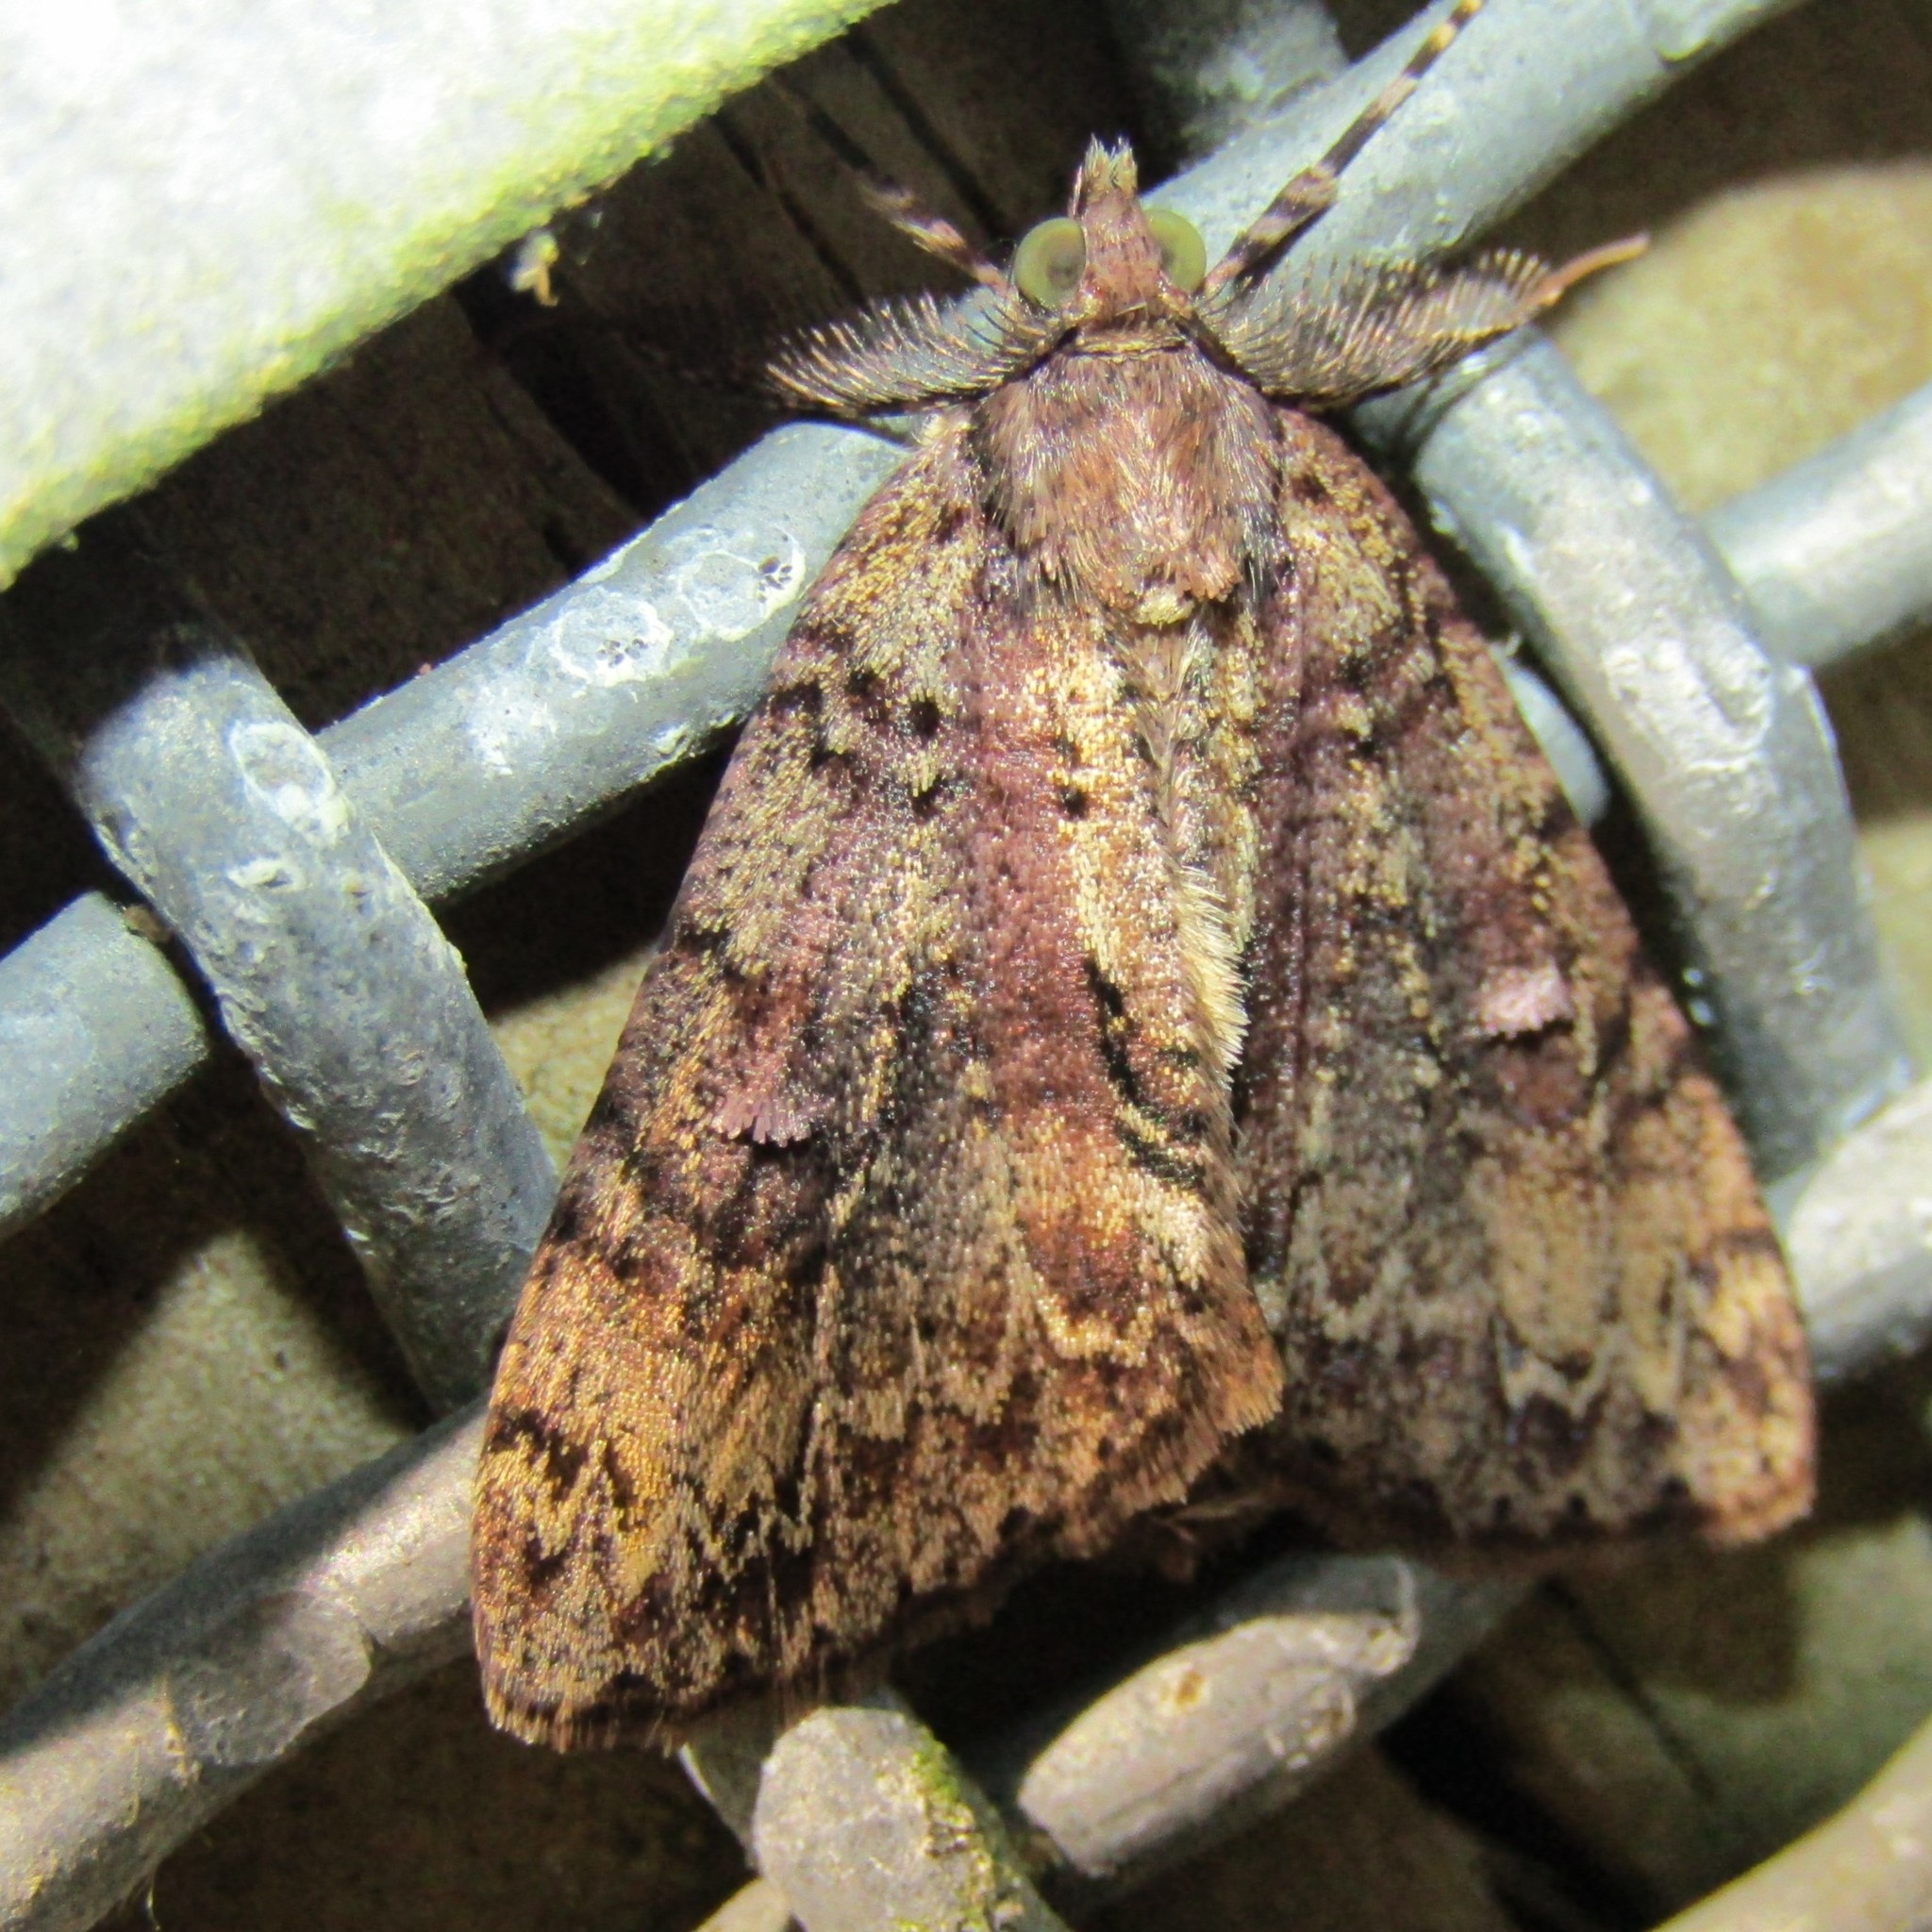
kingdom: Animalia
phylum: Arthropoda
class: Insecta
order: Lepidoptera
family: Geometridae
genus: Pseudocoremia
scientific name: Pseudocoremia suavis
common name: Common forest looper
